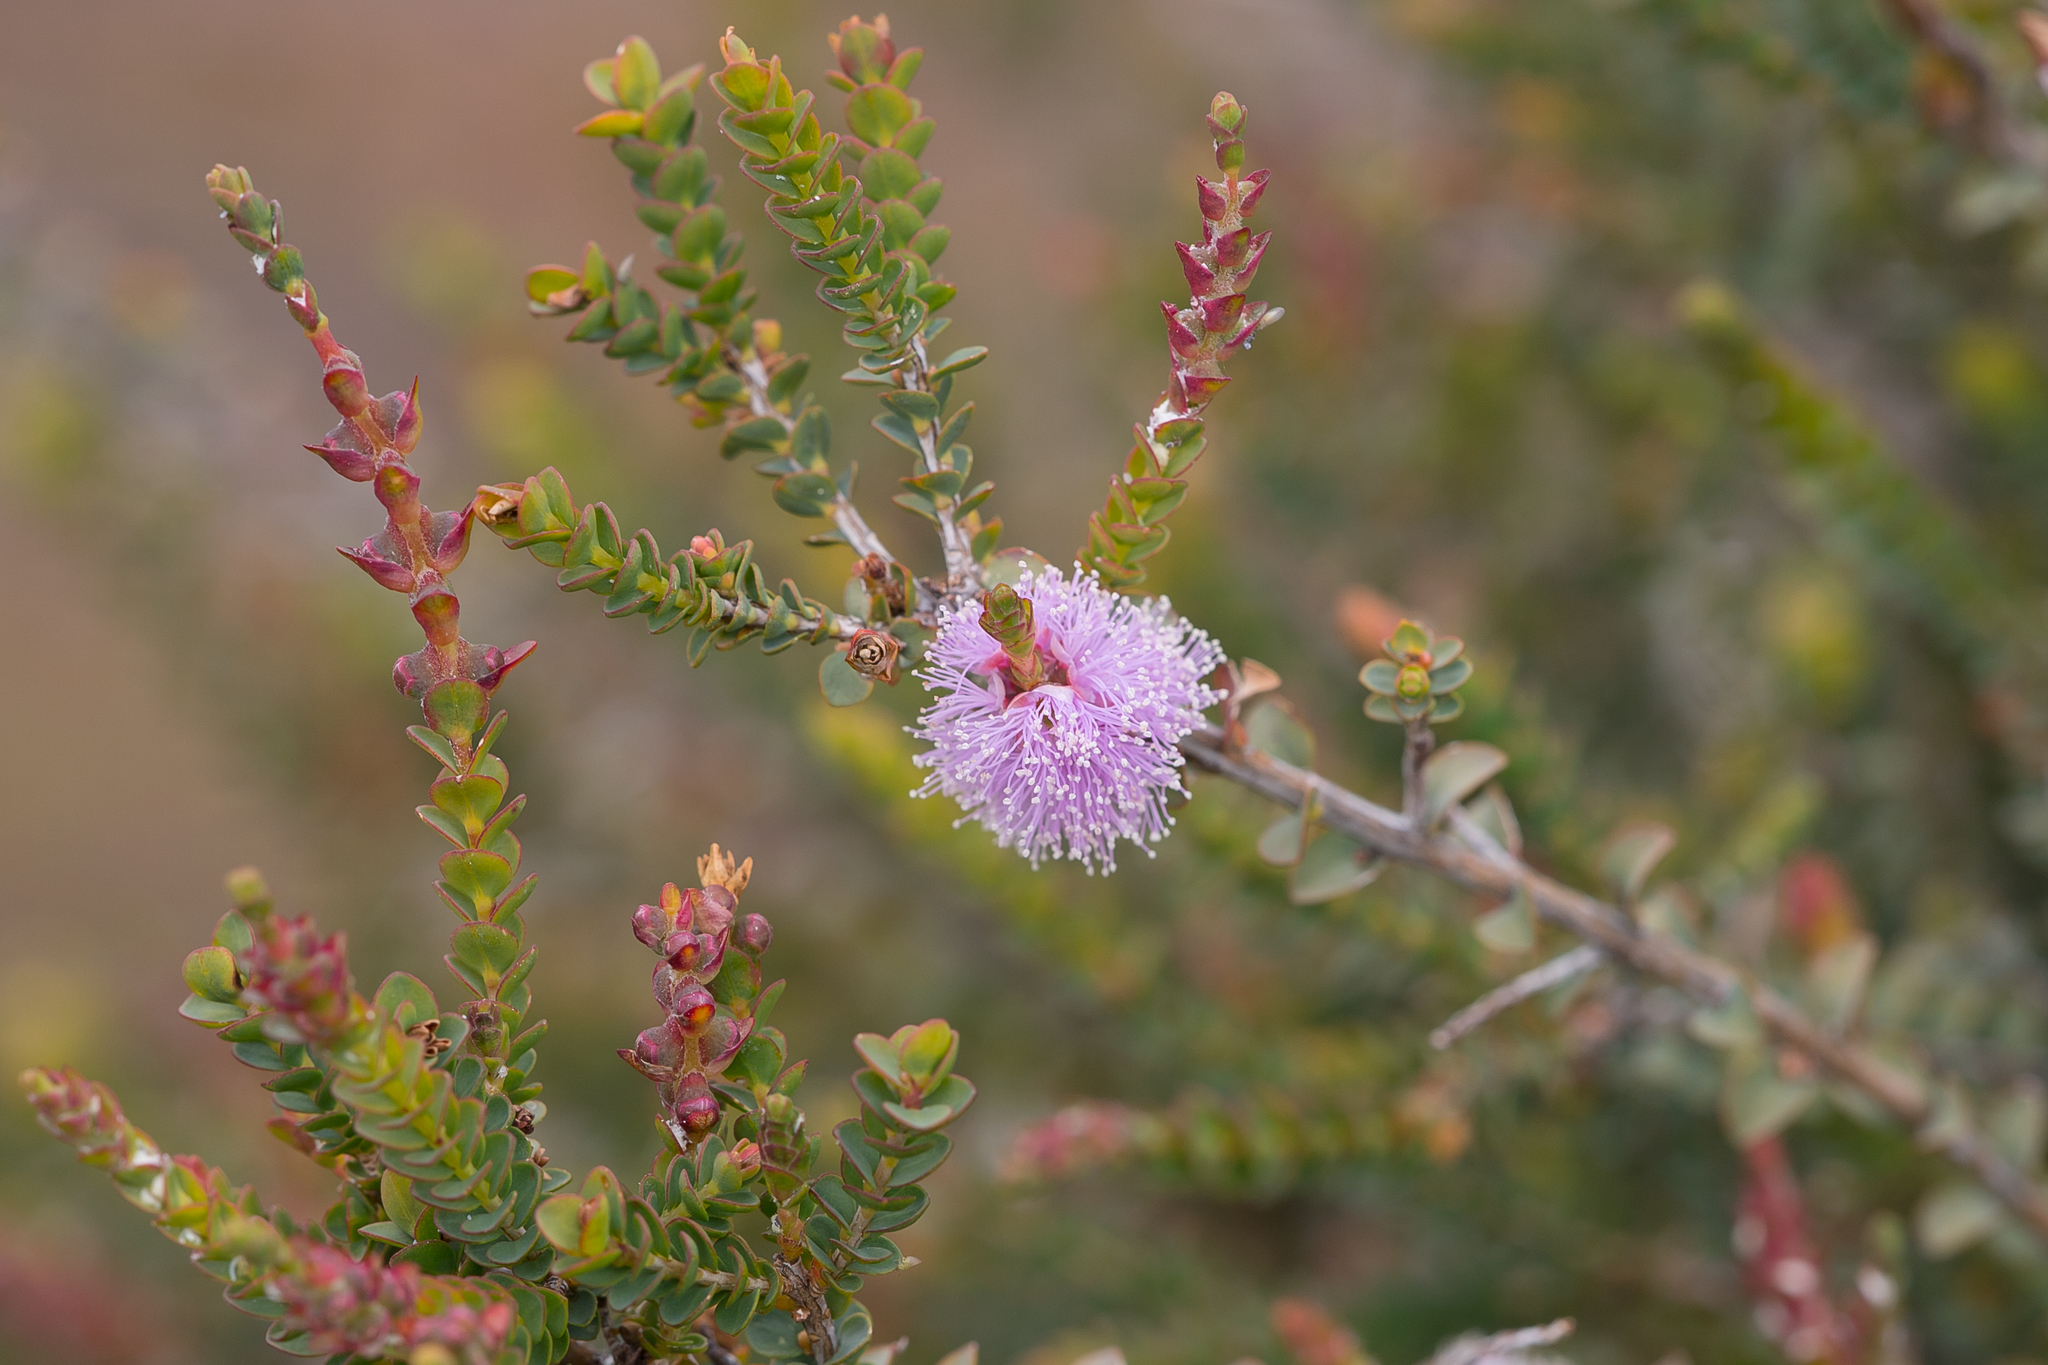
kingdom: Plantae
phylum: Tracheophyta
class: Magnoliopsida
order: Myrtales
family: Myrtaceae
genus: Melaleuca
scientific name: Melaleuca gibbosa
